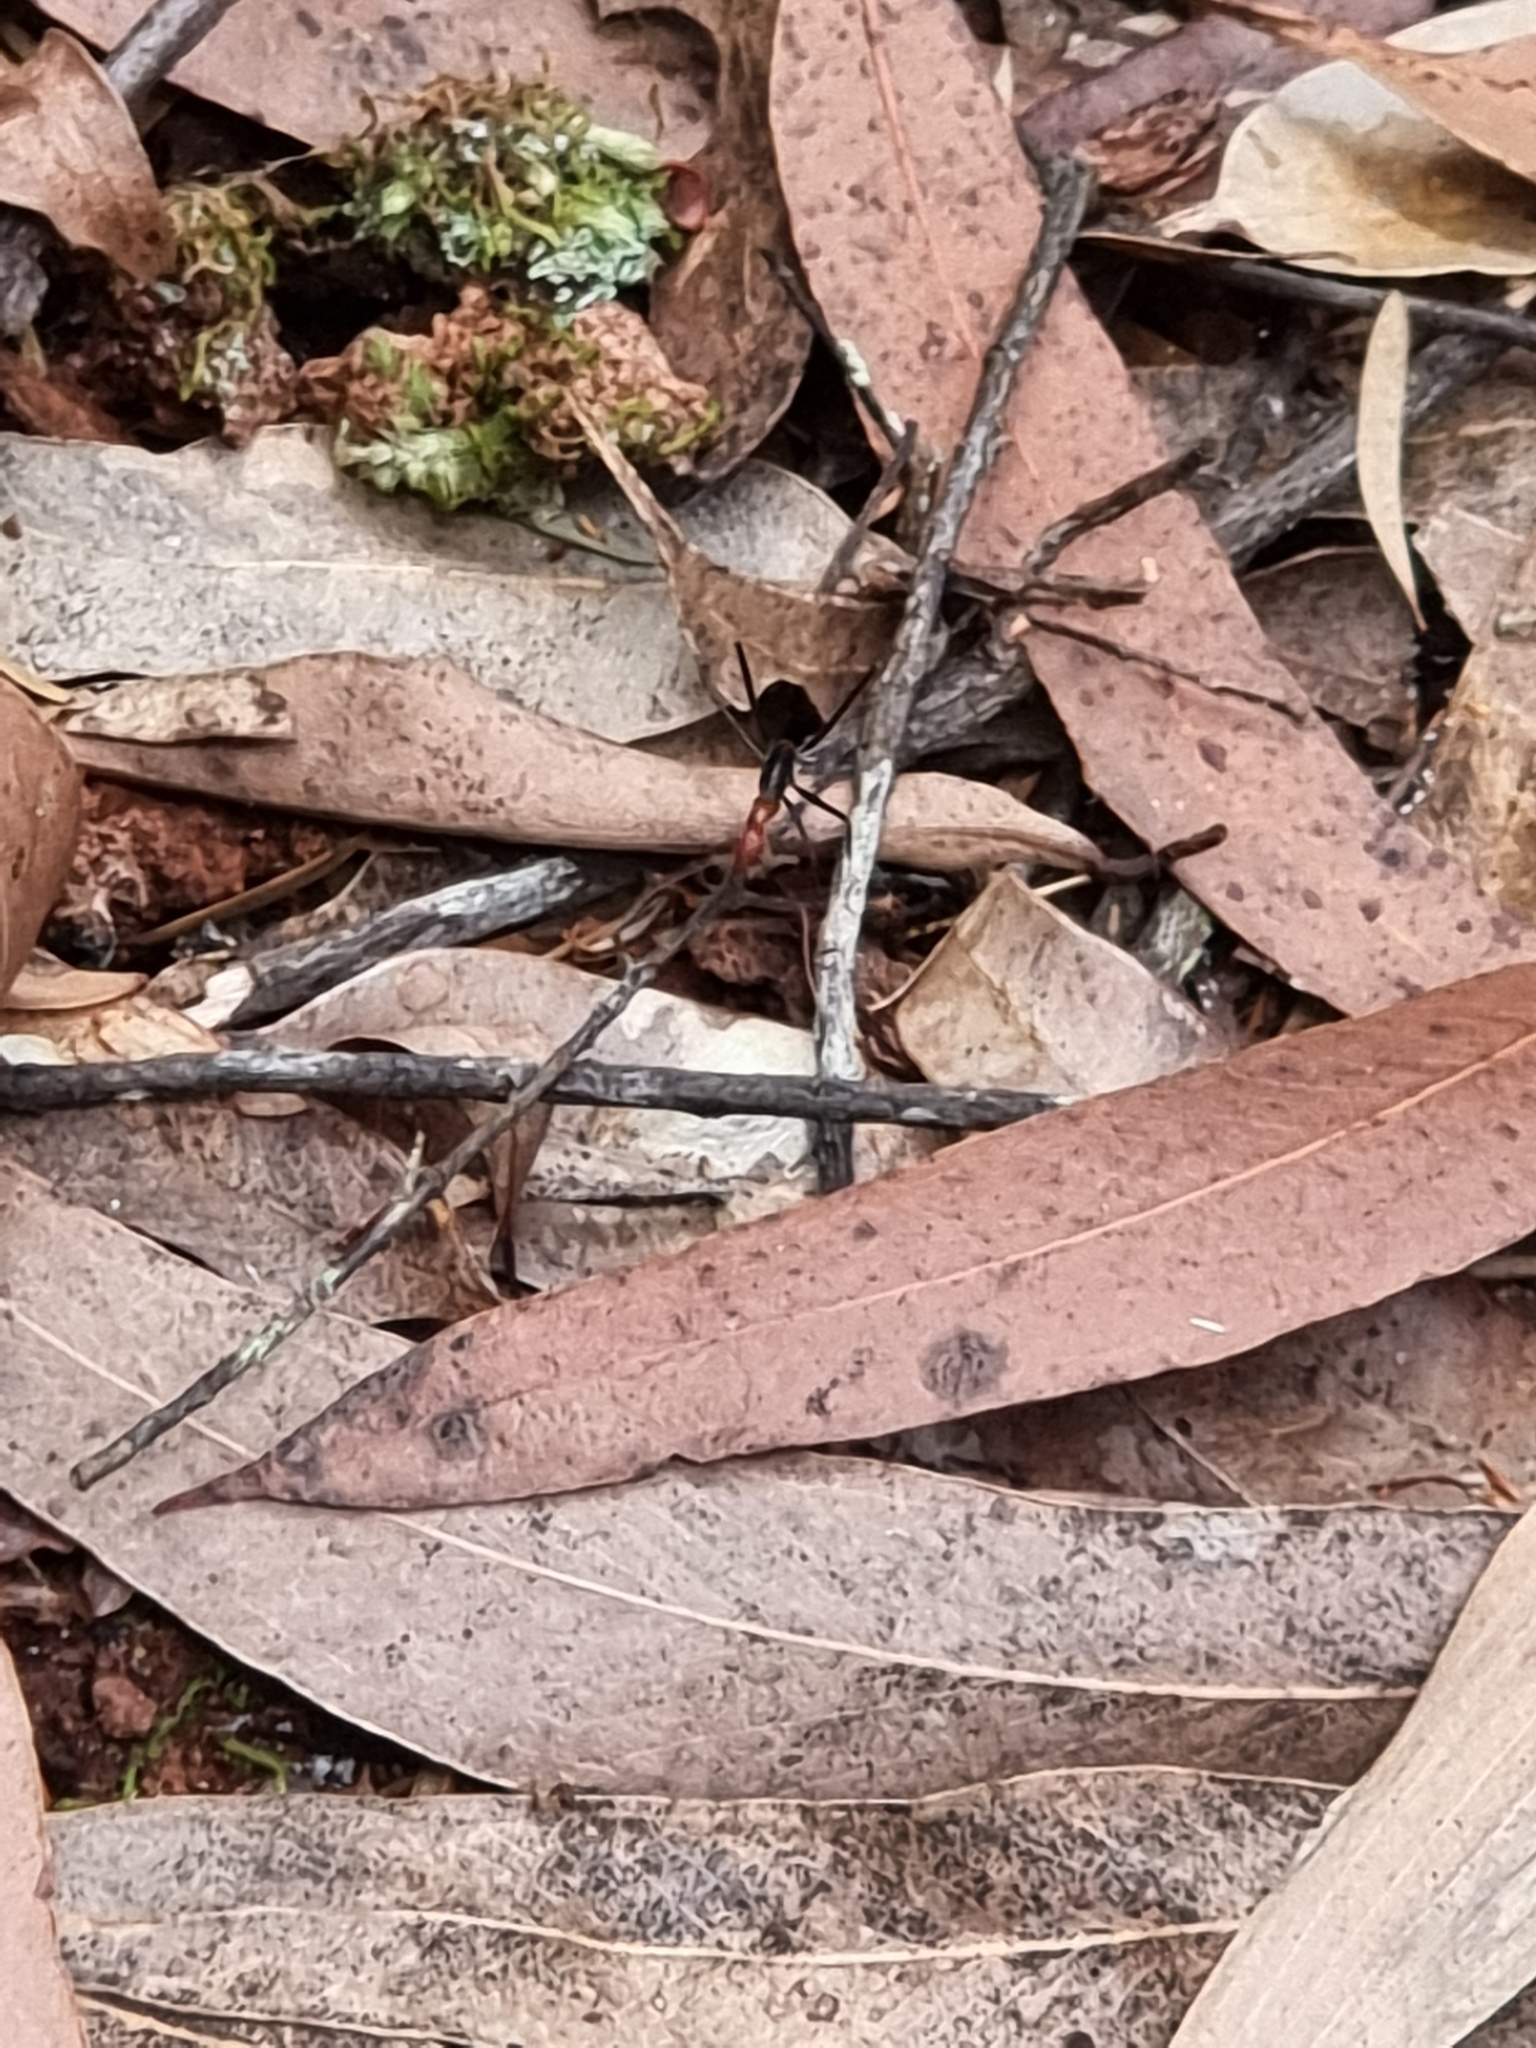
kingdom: Animalia
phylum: Arthropoda
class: Insecta
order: Hymenoptera
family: Formicidae
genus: Leptomyrmex
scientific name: Leptomyrmex rufithorax
